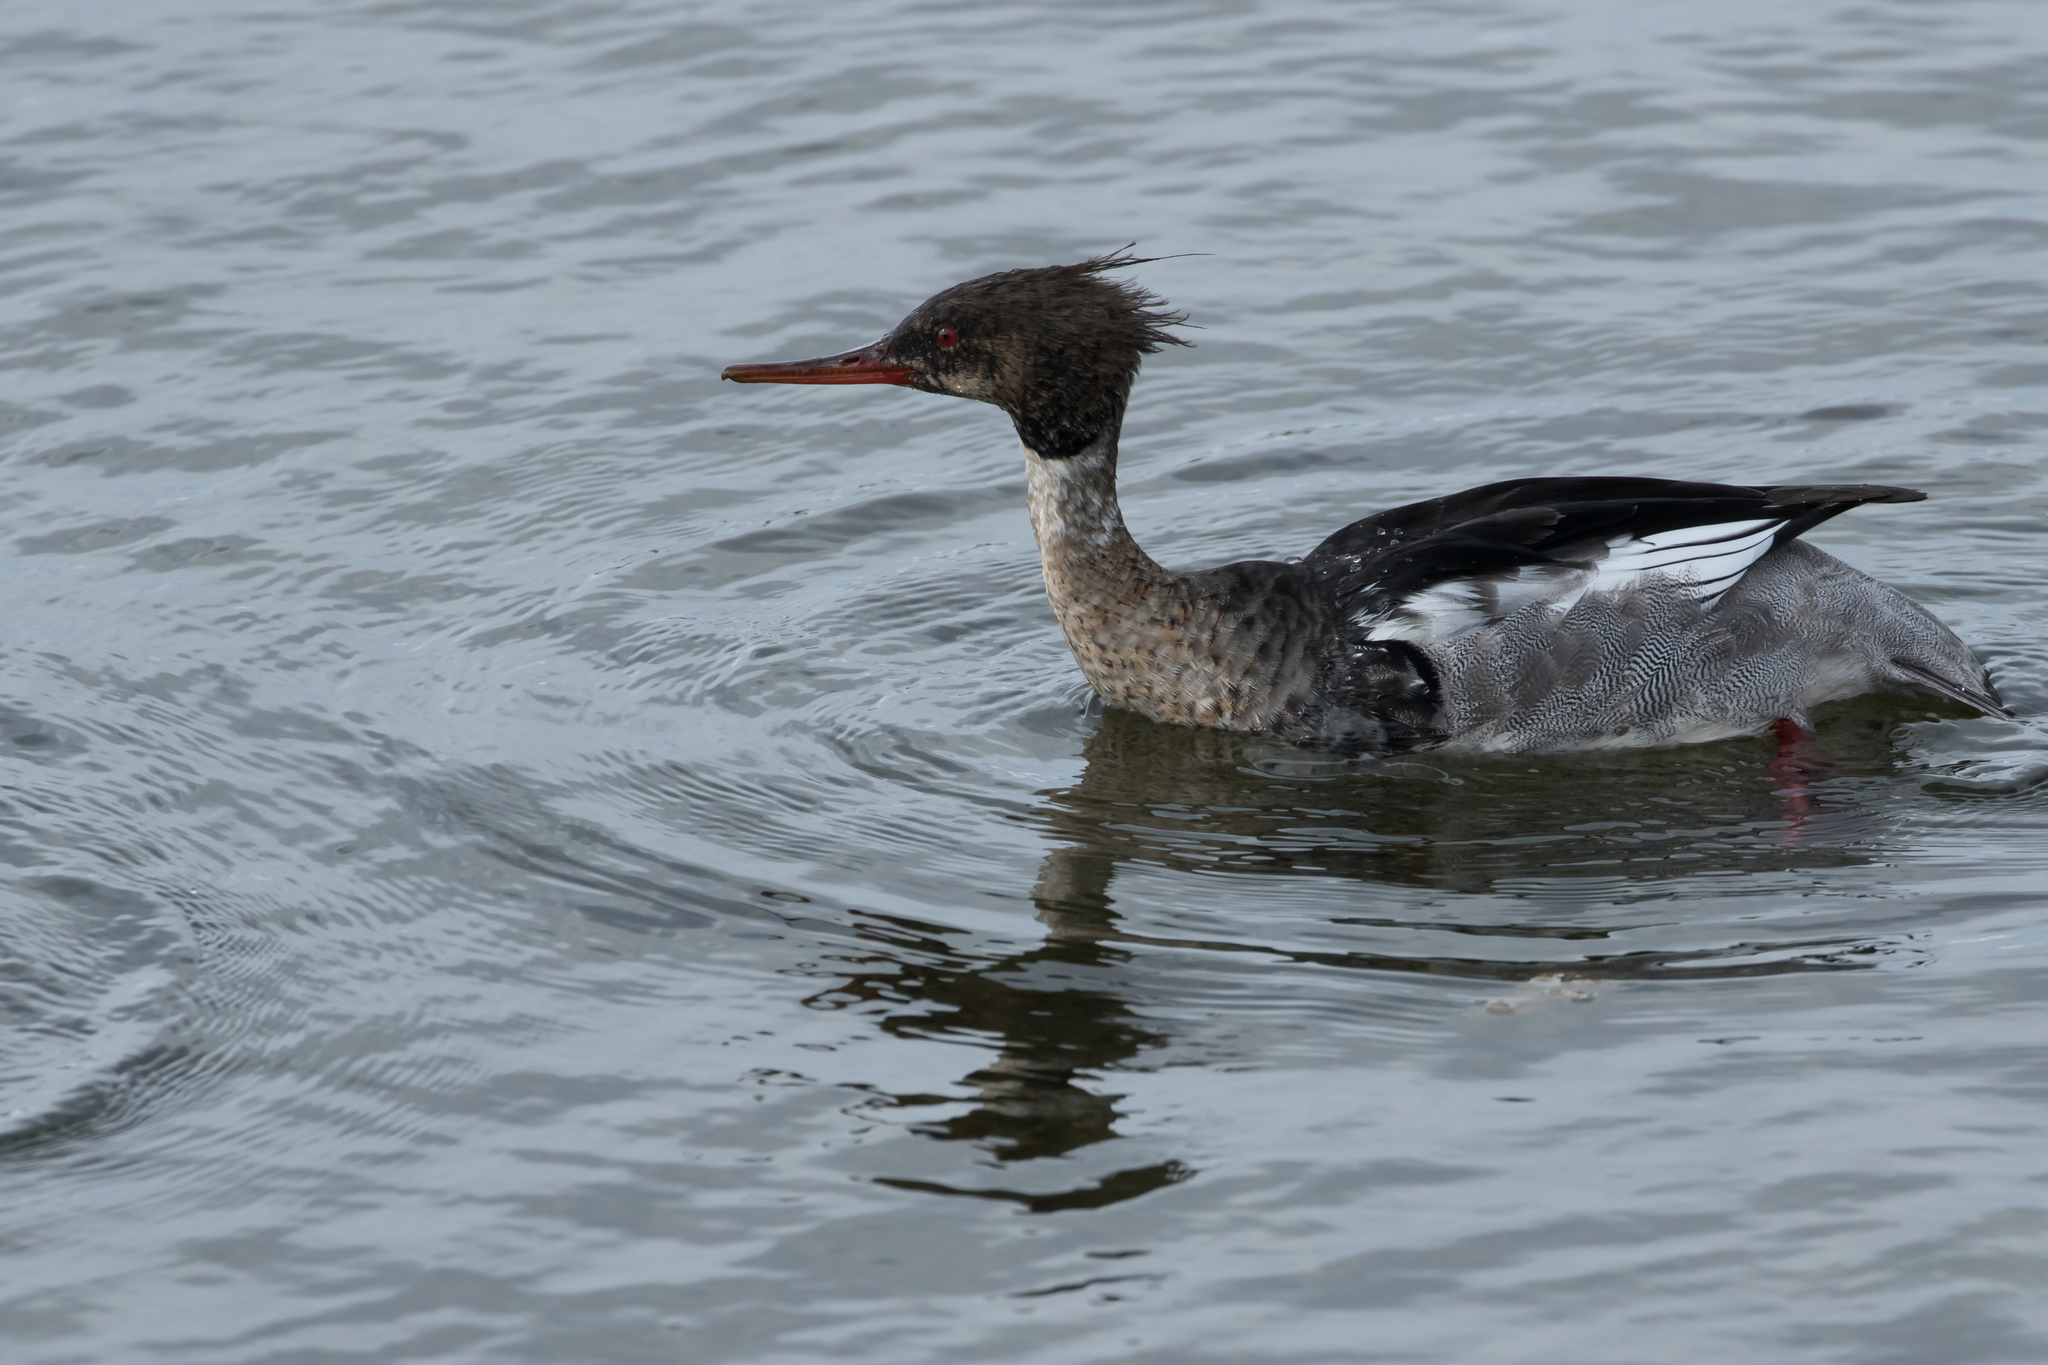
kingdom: Animalia
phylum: Chordata
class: Aves
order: Anseriformes
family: Anatidae
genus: Mergus
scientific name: Mergus serrator
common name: Red-breasted merganser
